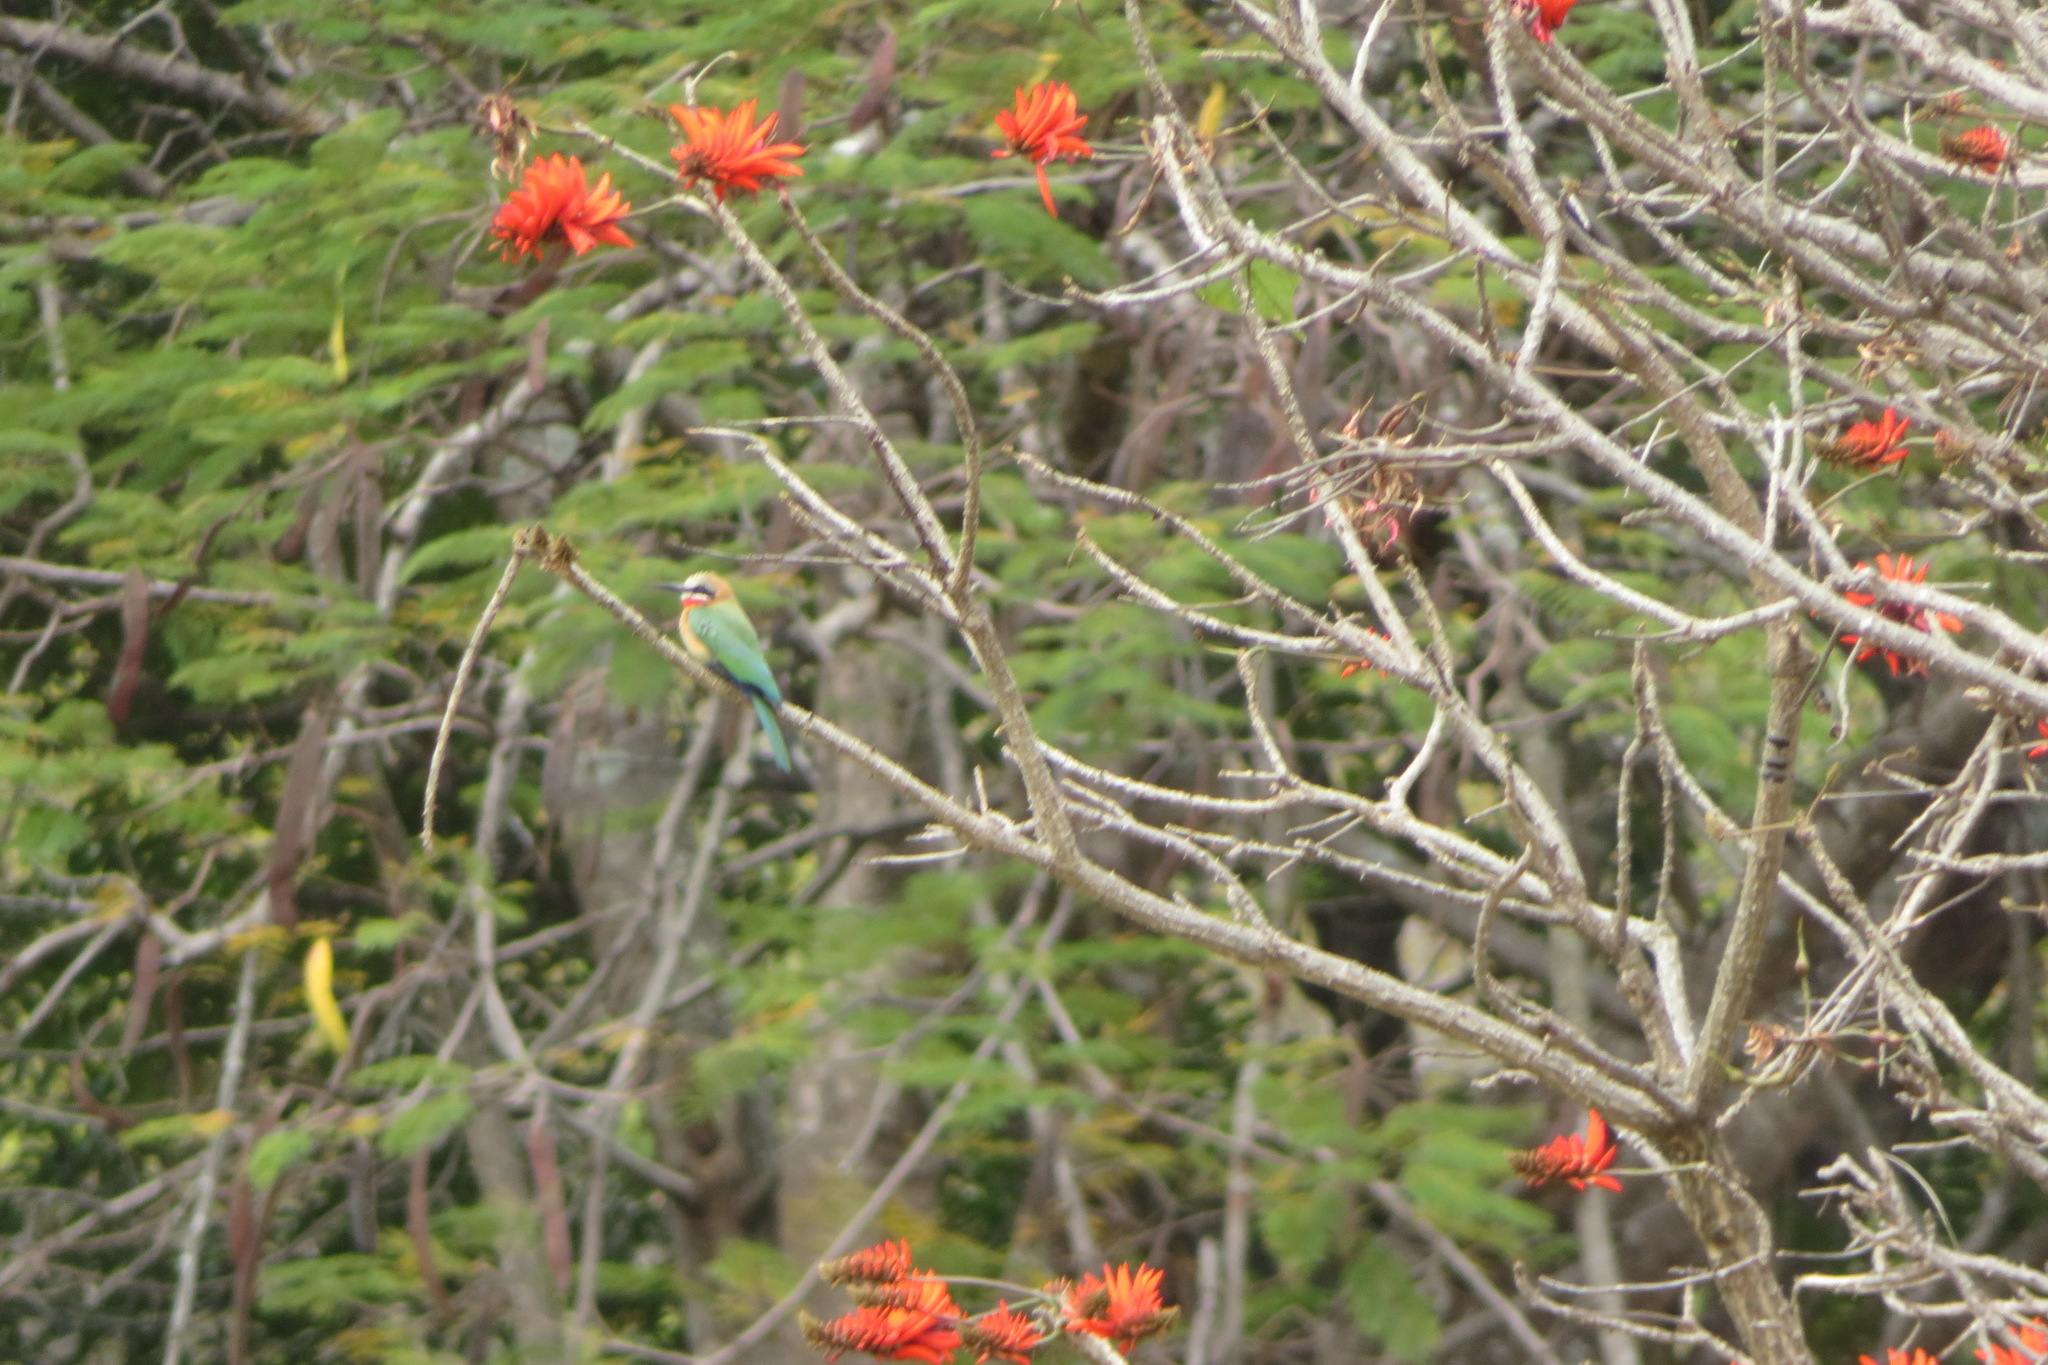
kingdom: Plantae
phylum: Tracheophyta
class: Magnoliopsida
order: Fabales
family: Fabaceae
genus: Erythrina
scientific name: Erythrina lysistemon
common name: Common coral tree
